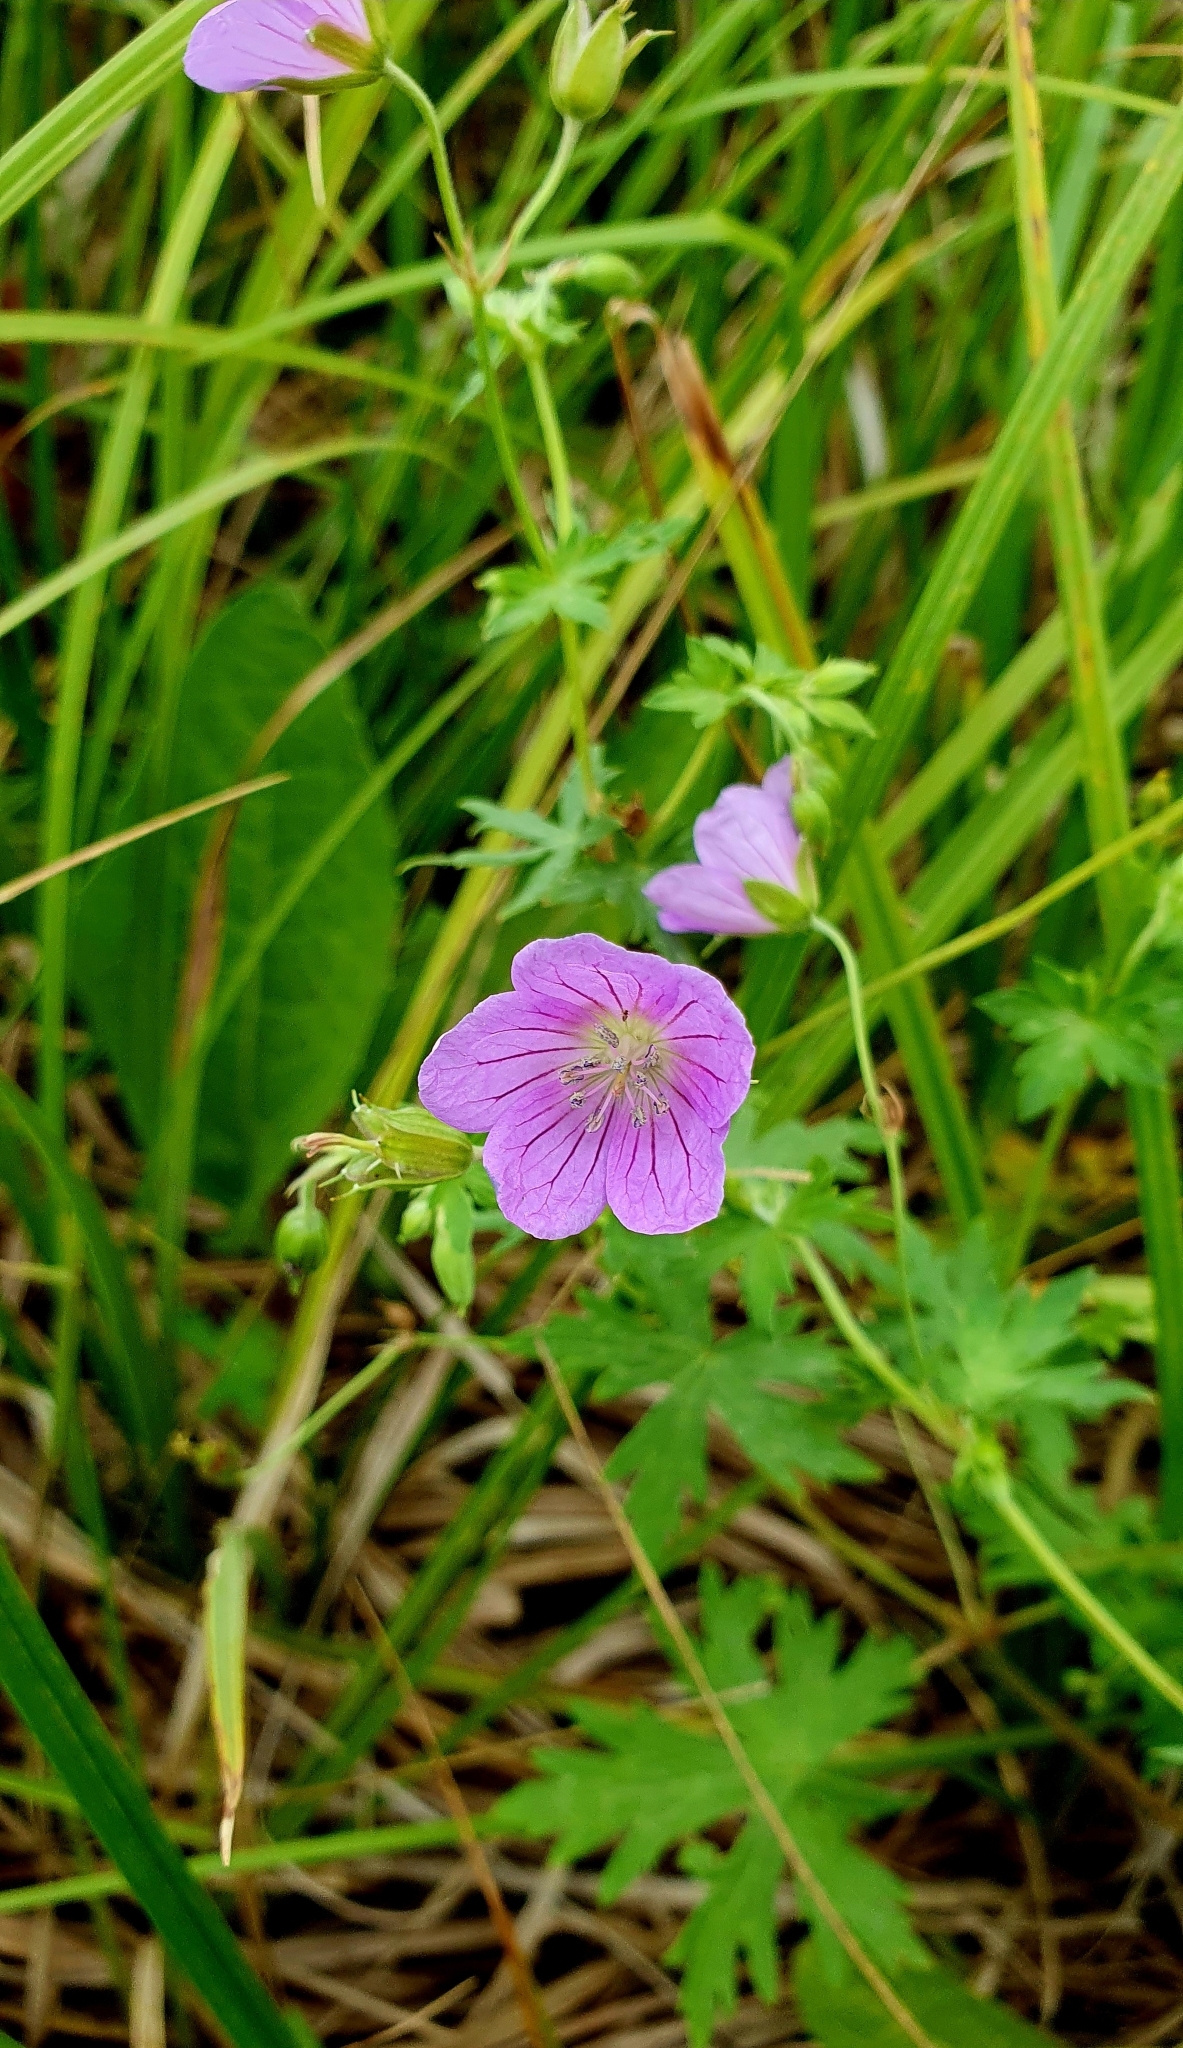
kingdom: Plantae
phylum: Tracheophyta
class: Magnoliopsida
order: Geraniales
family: Geraniaceae
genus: Geranium
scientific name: Geranium collinum
